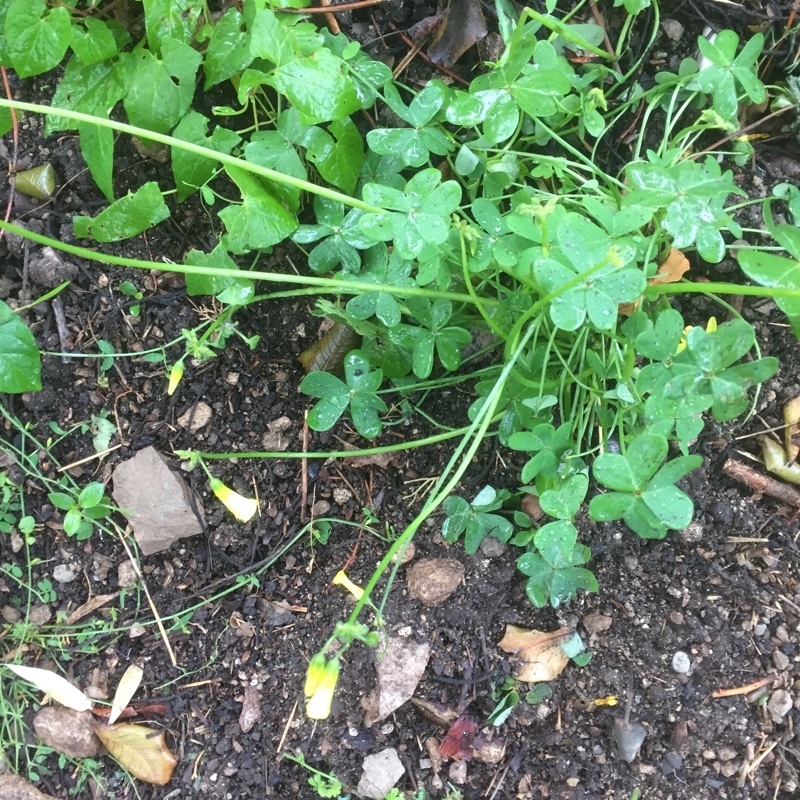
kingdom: Plantae
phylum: Tracheophyta
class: Magnoliopsida
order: Oxalidales
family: Oxalidaceae
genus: Oxalis
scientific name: Oxalis pes-caprae
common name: Bermuda-buttercup
